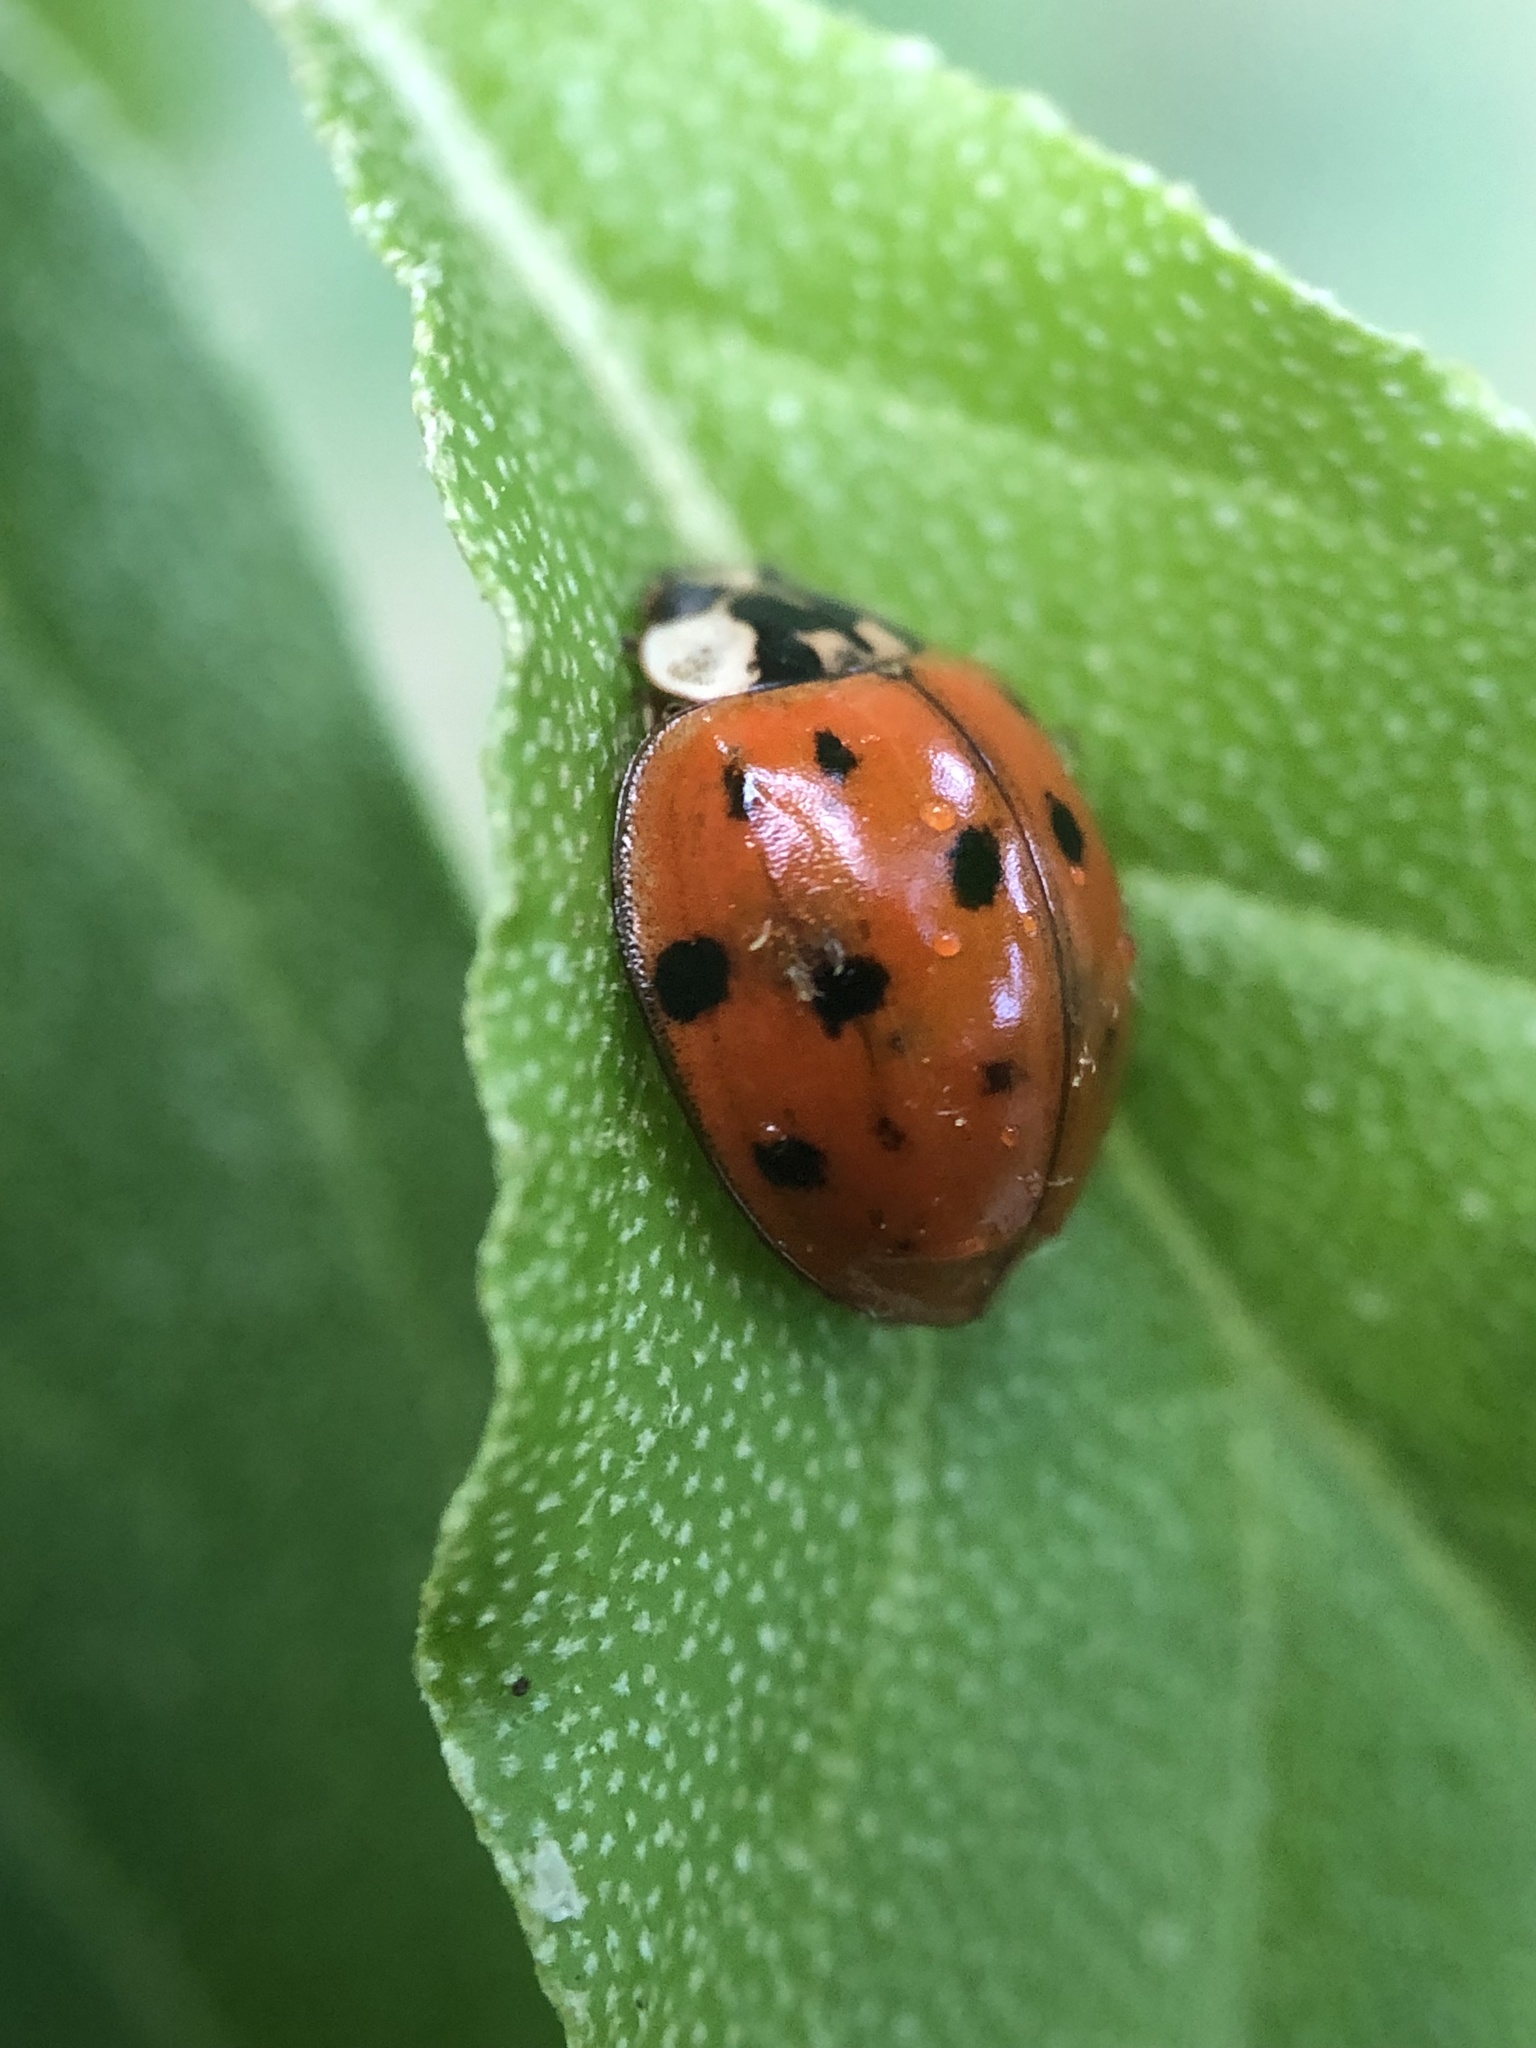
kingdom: Animalia
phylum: Arthropoda
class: Insecta
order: Coleoptera
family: Coccinellidae
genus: Harmonia
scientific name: Harmonia axyridis
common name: Harlequin ladybird
